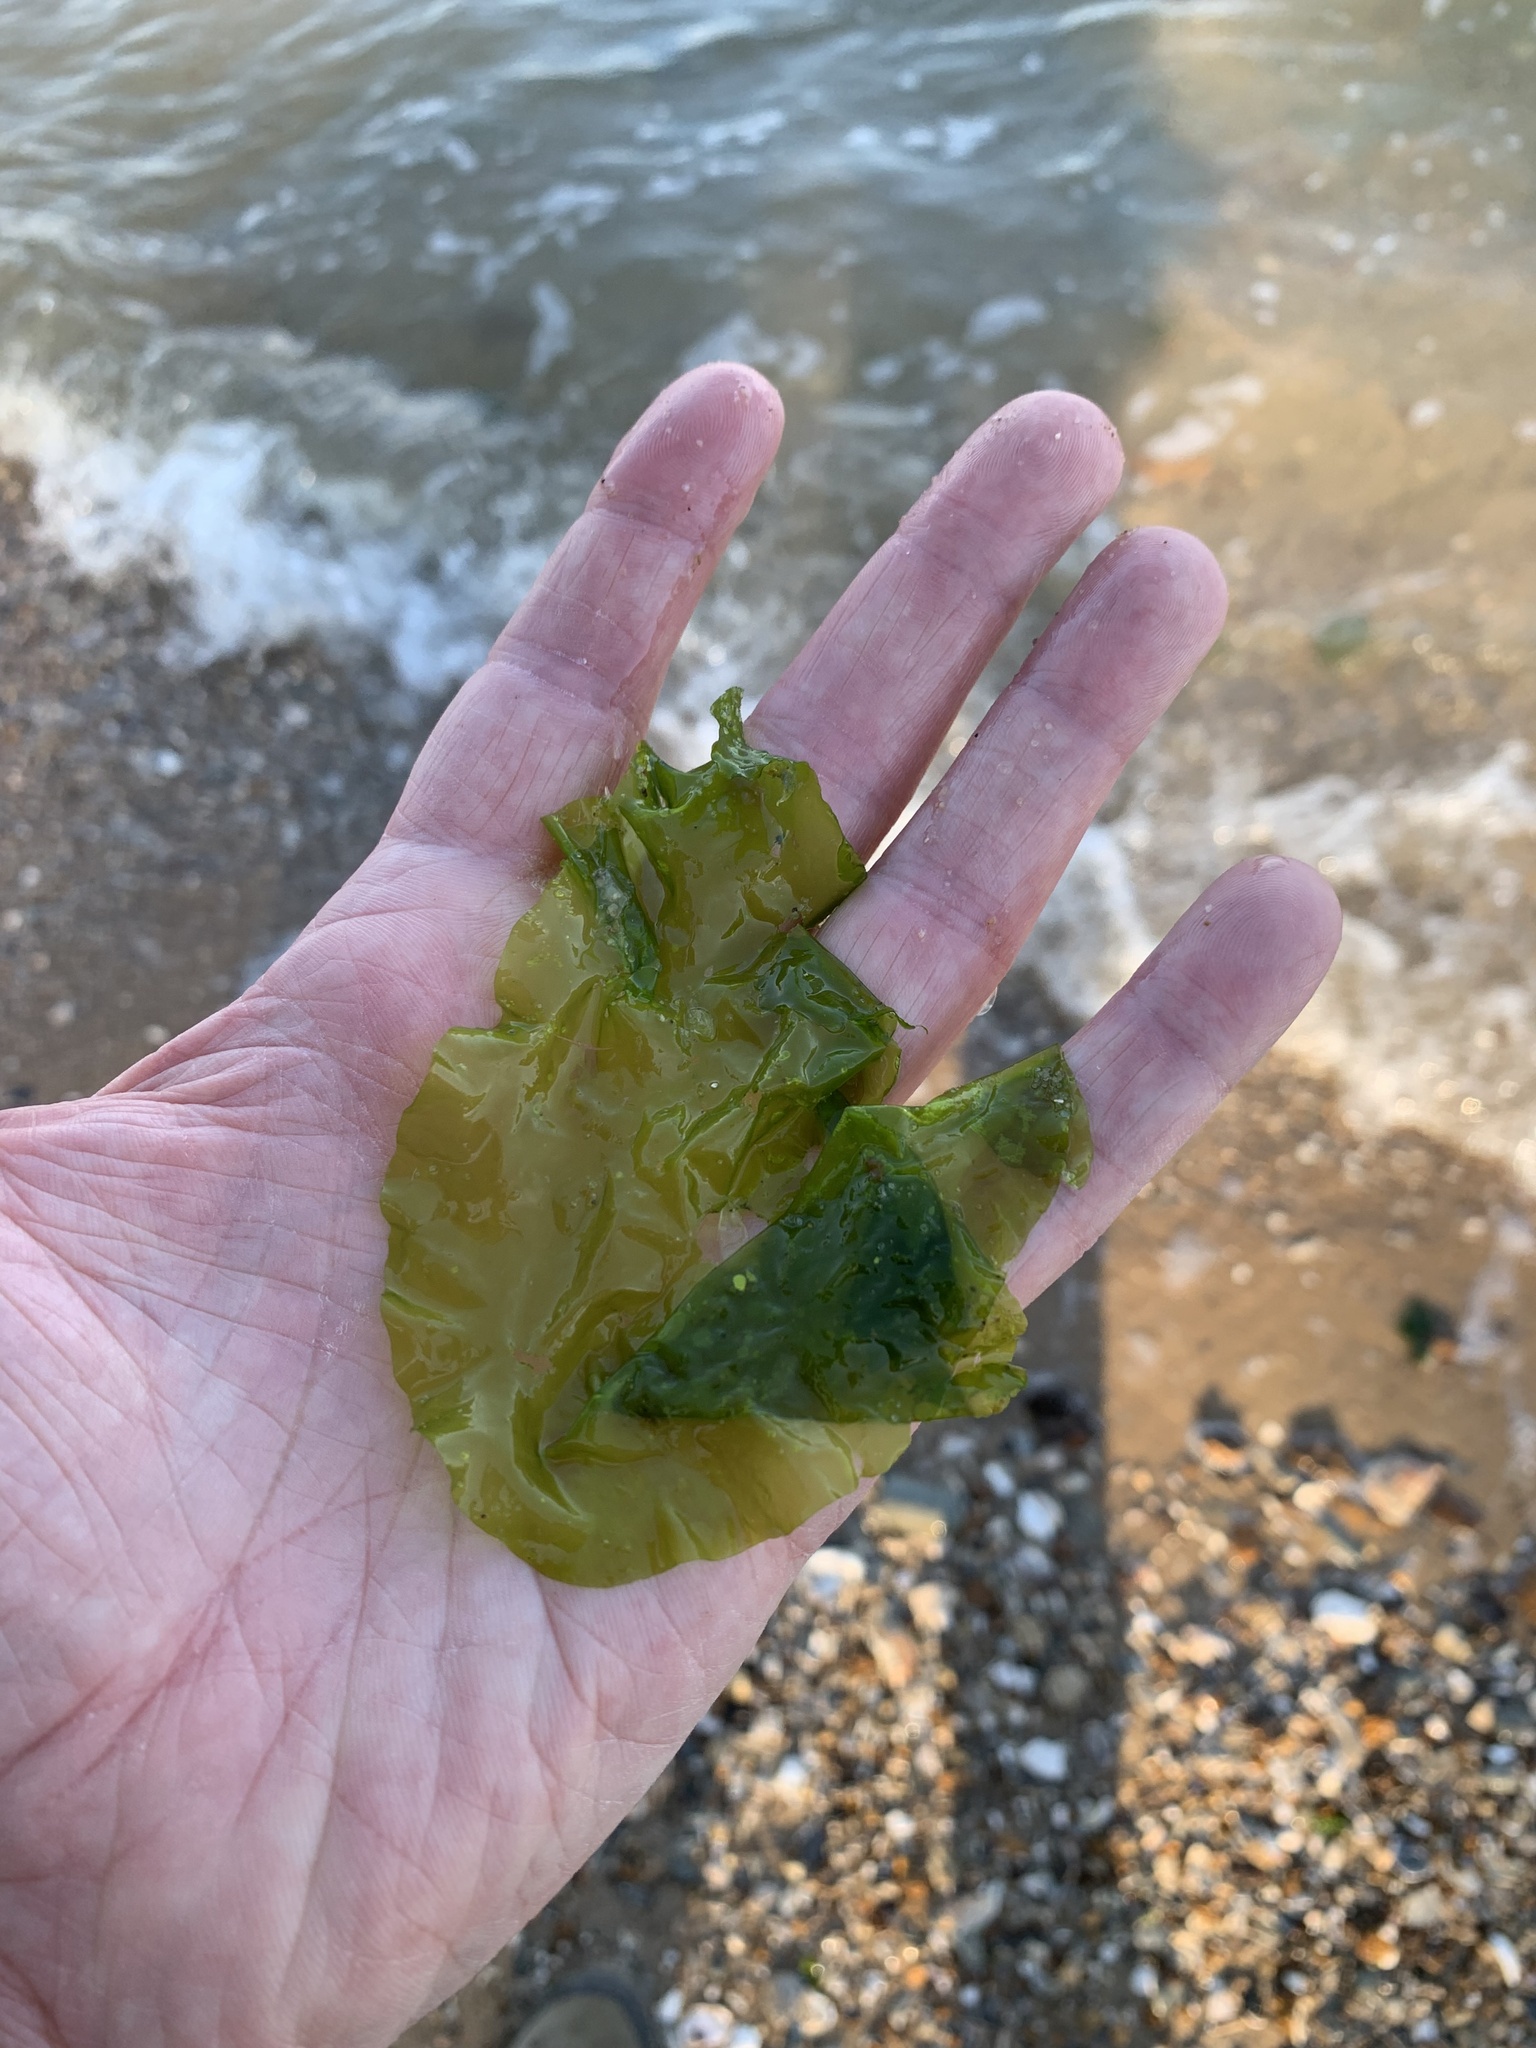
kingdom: Plantae
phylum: Chlorophyta
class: Ulvophyceae
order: Ulvales
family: Ulvaceae
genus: Ulva
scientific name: Ulva lactuca
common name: Sea lettuce
